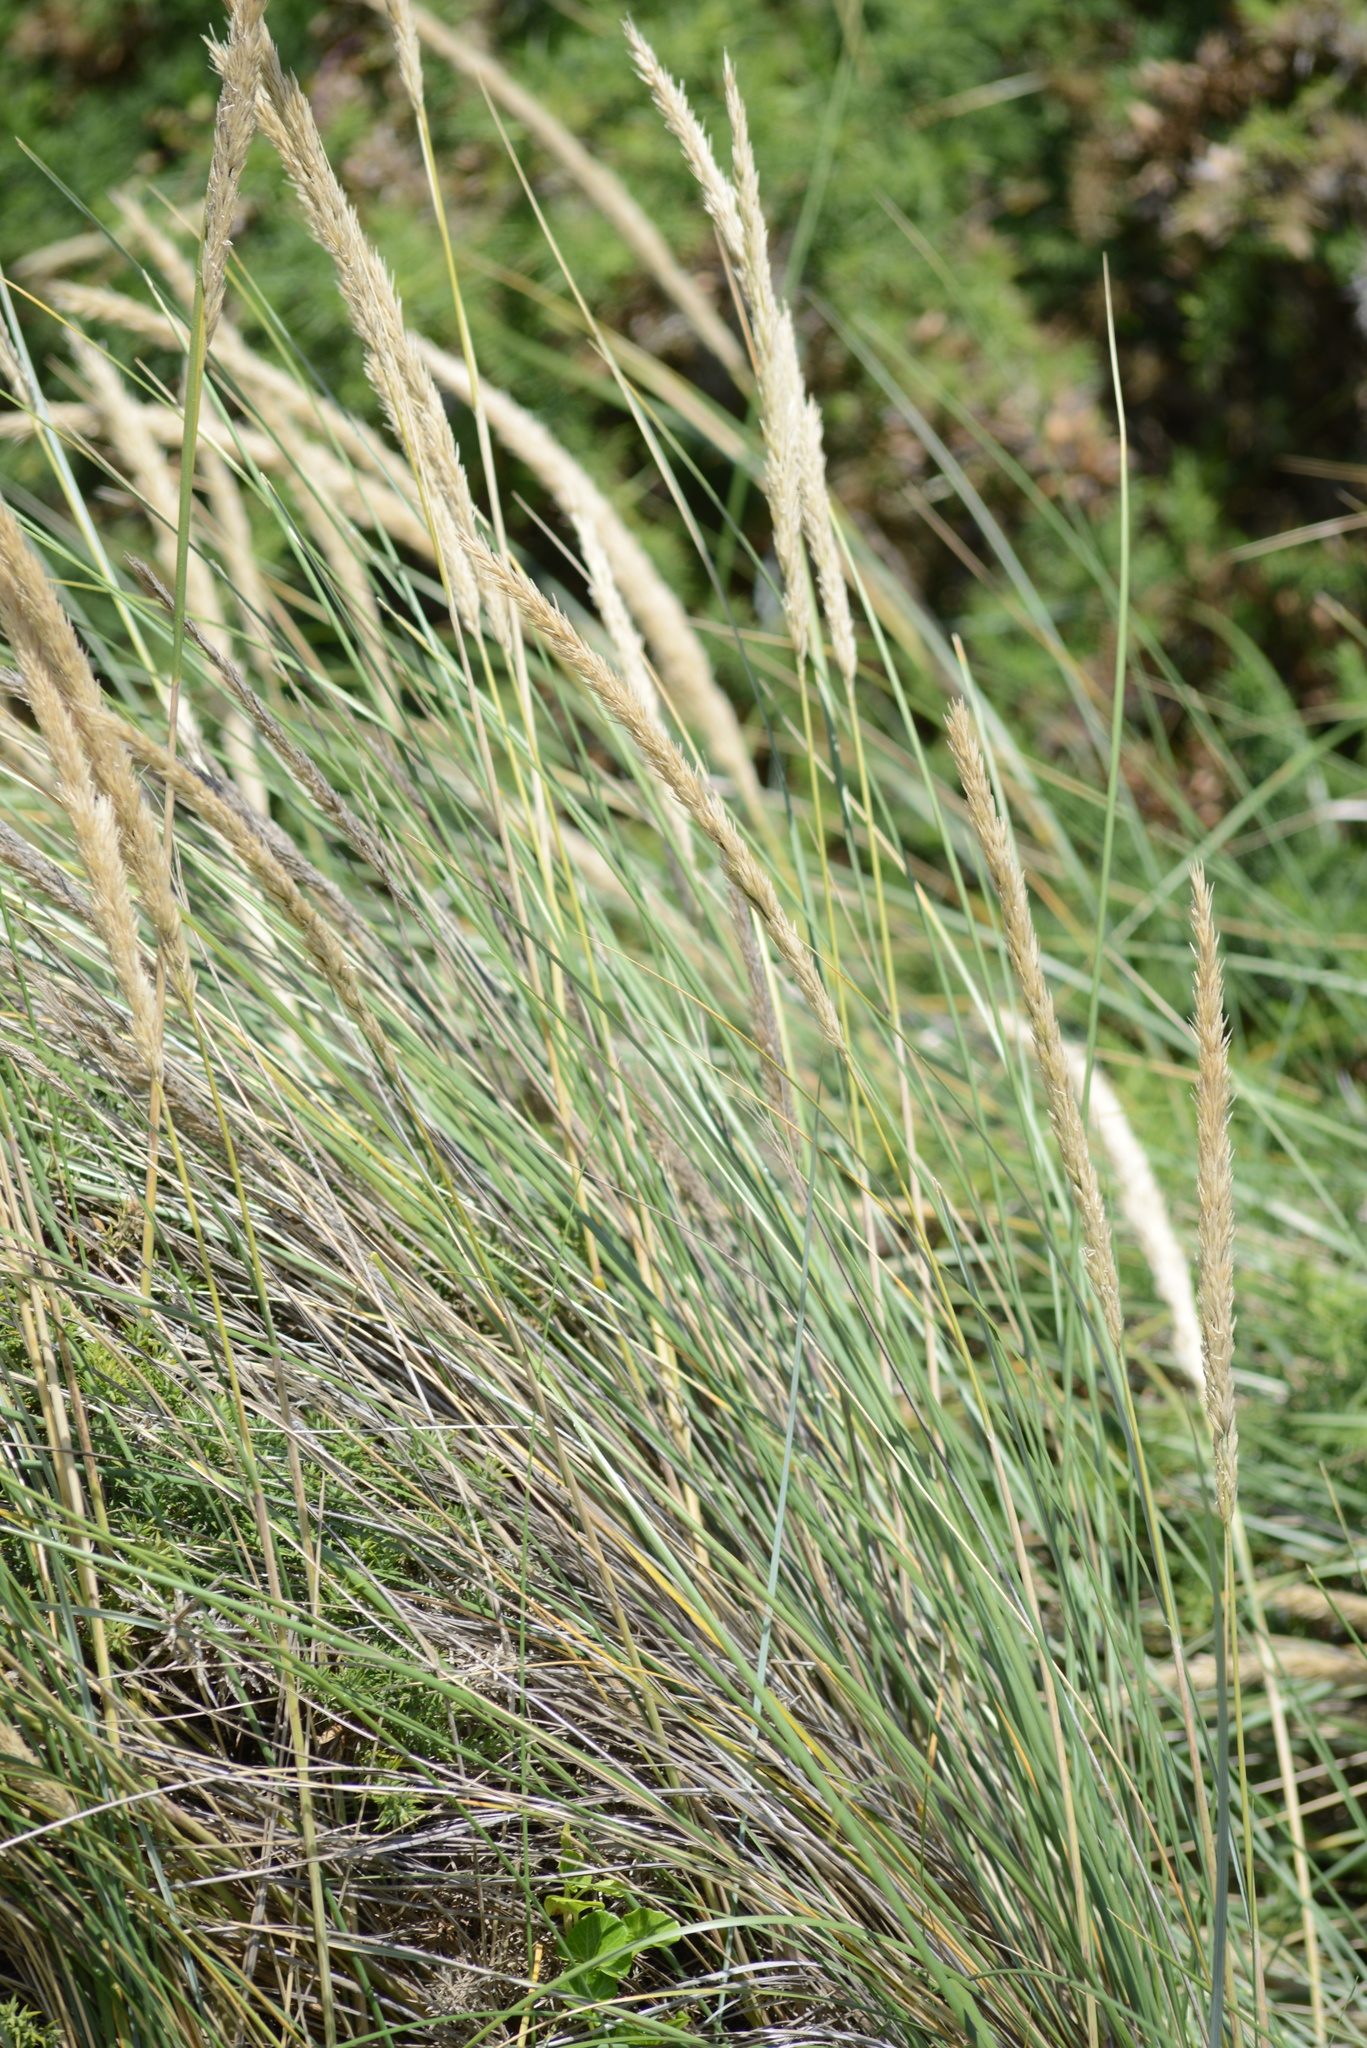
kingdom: Plantae
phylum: Tracheophyta
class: Liliopsida
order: Poales
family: Poaceae
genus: Calamagrostis
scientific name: Calamagrostis arenaria
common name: European beachgrass
